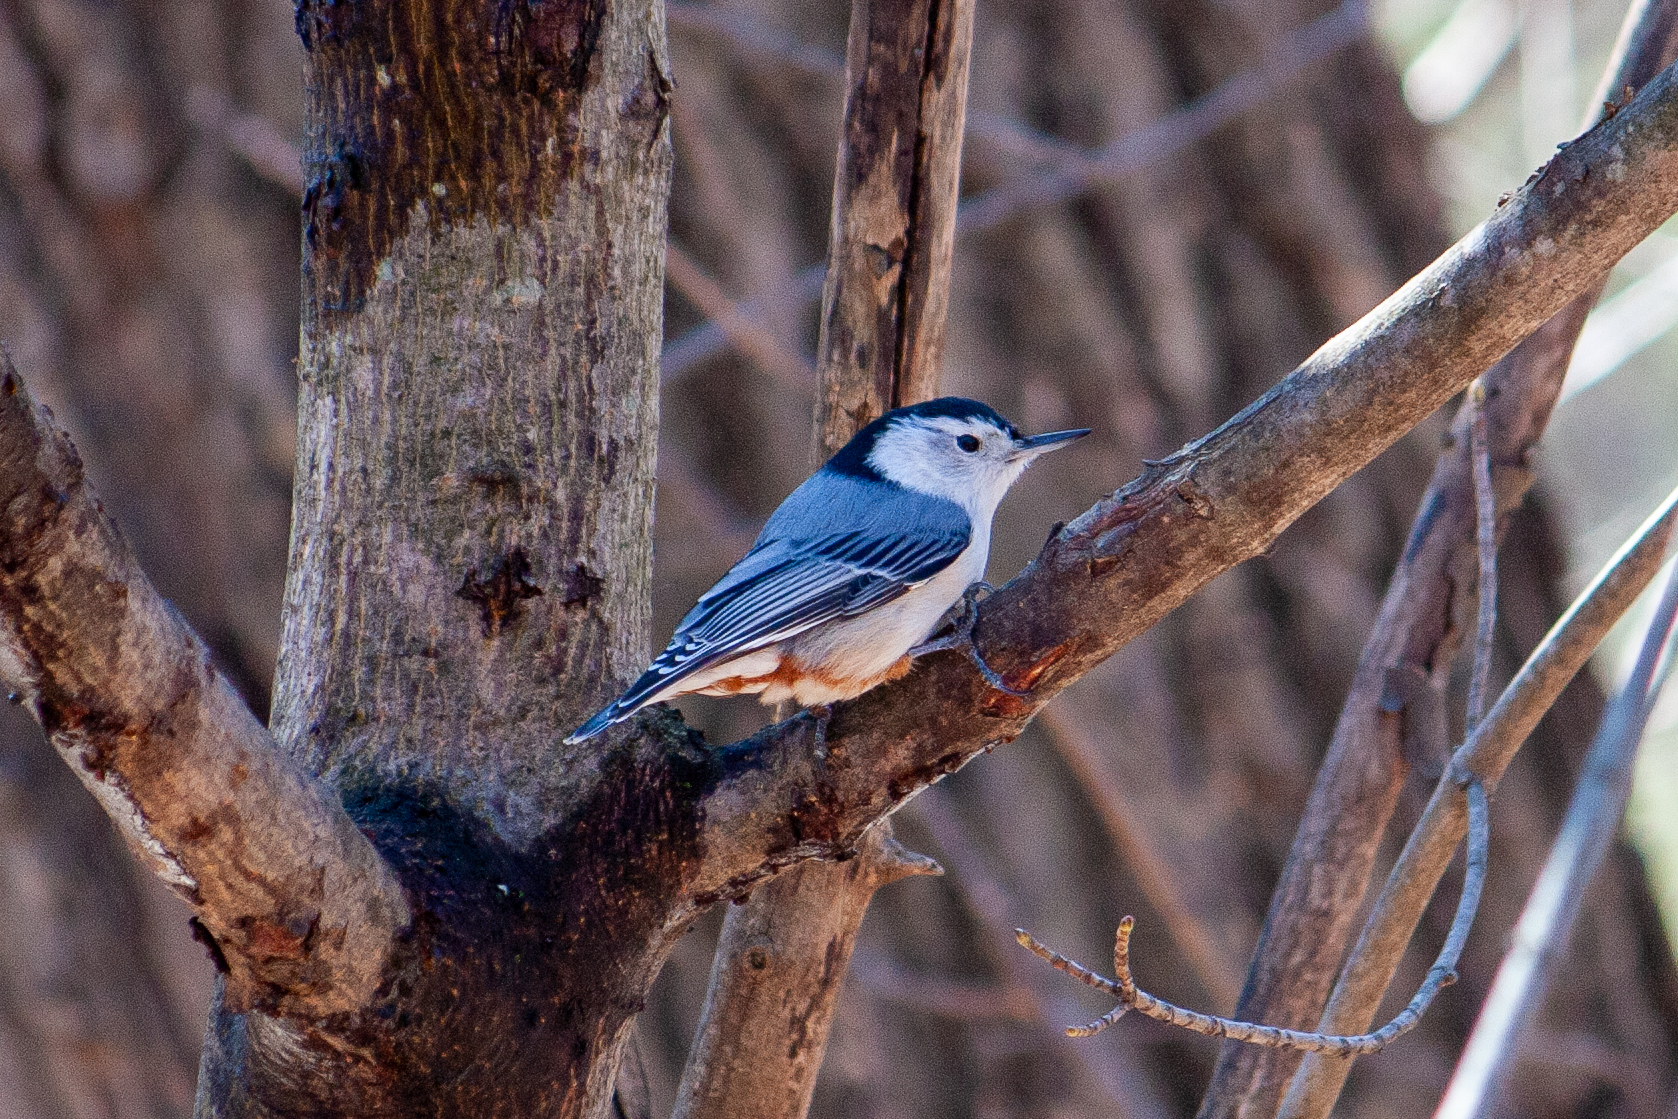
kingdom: Animalia
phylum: Chordata
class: Aves
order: Passeriformes
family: Sittidae
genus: Sitta
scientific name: Sitta carolinensis
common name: White-breasted nuthatch
